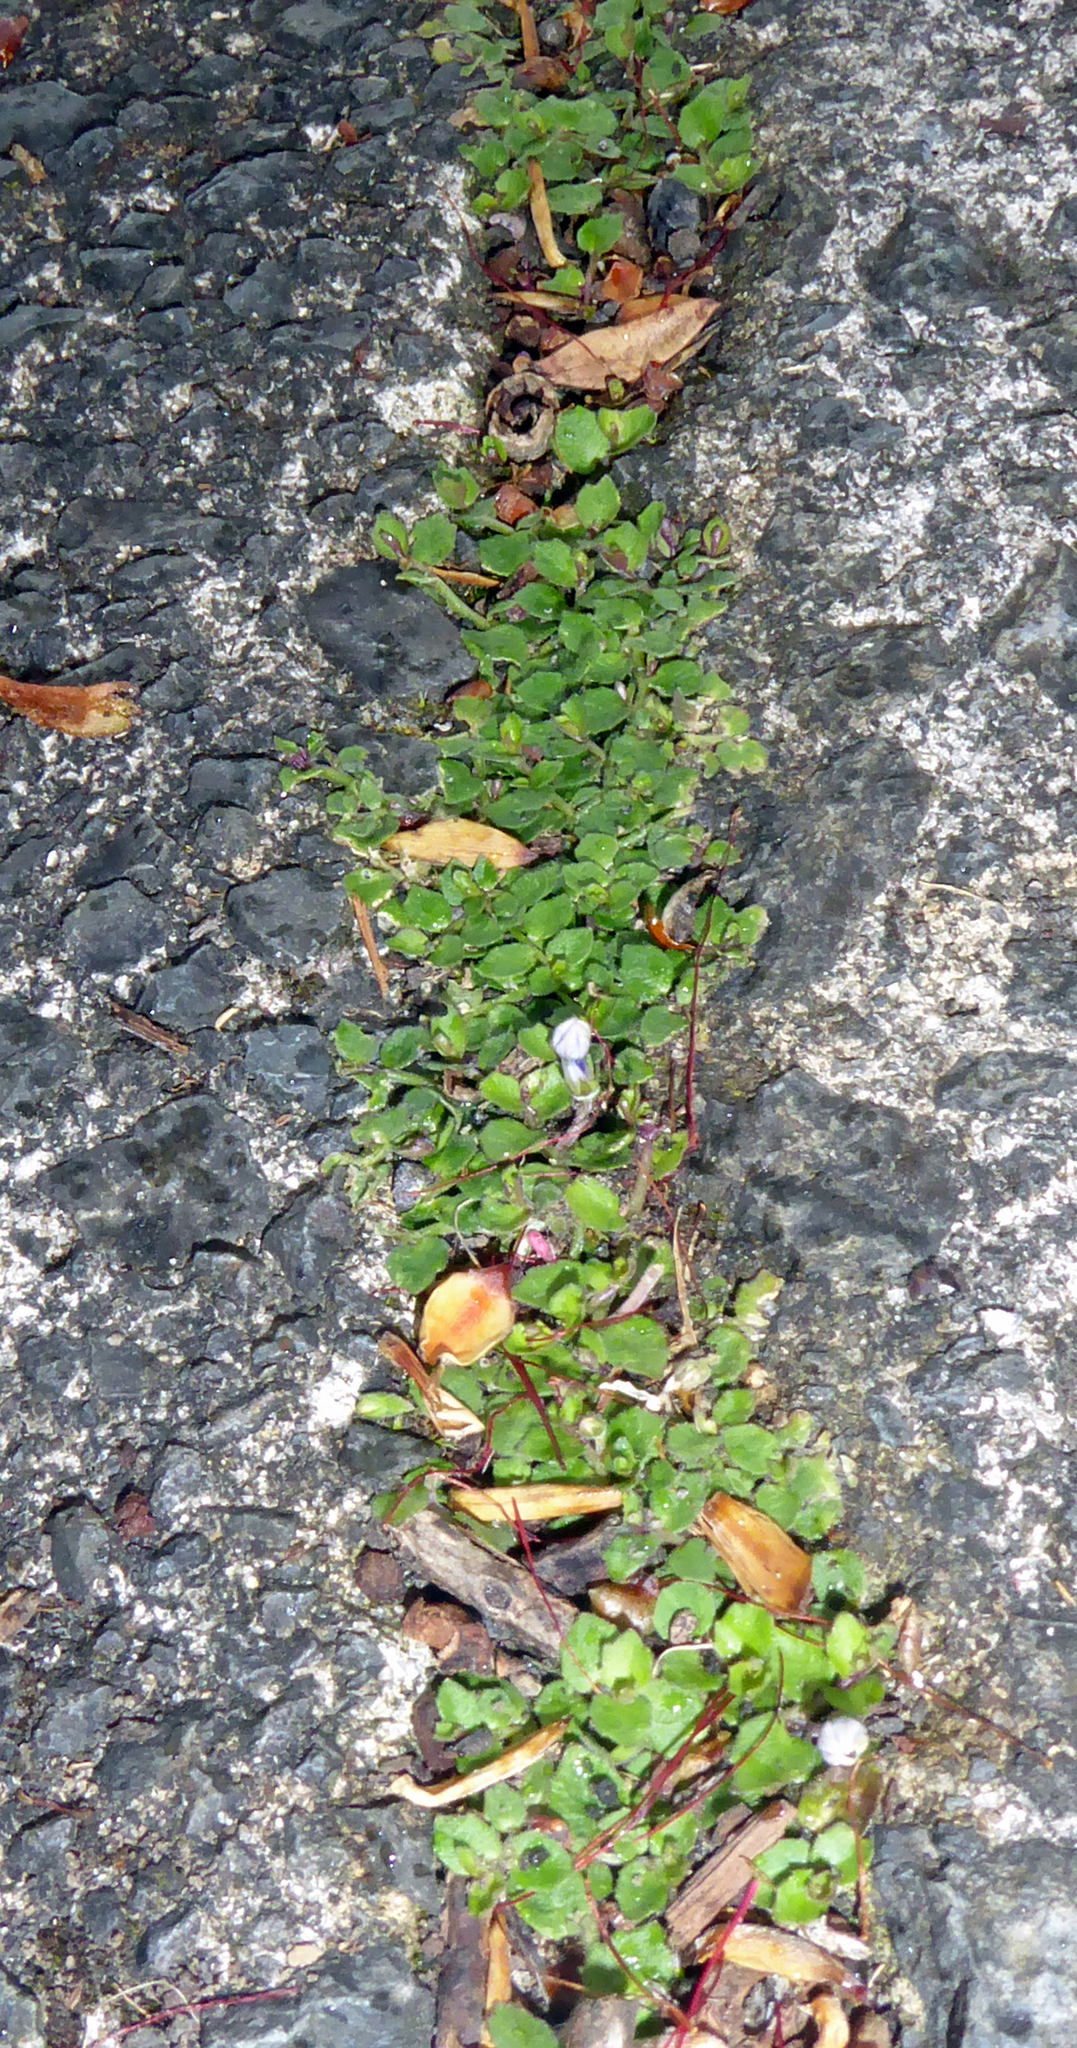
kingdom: Plantae
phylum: Tracheophyta
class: Magnoliopsida
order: Asterales
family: Campanulaceae
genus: Lobelia
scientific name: Lobelia pedunculata
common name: Matted pratia
